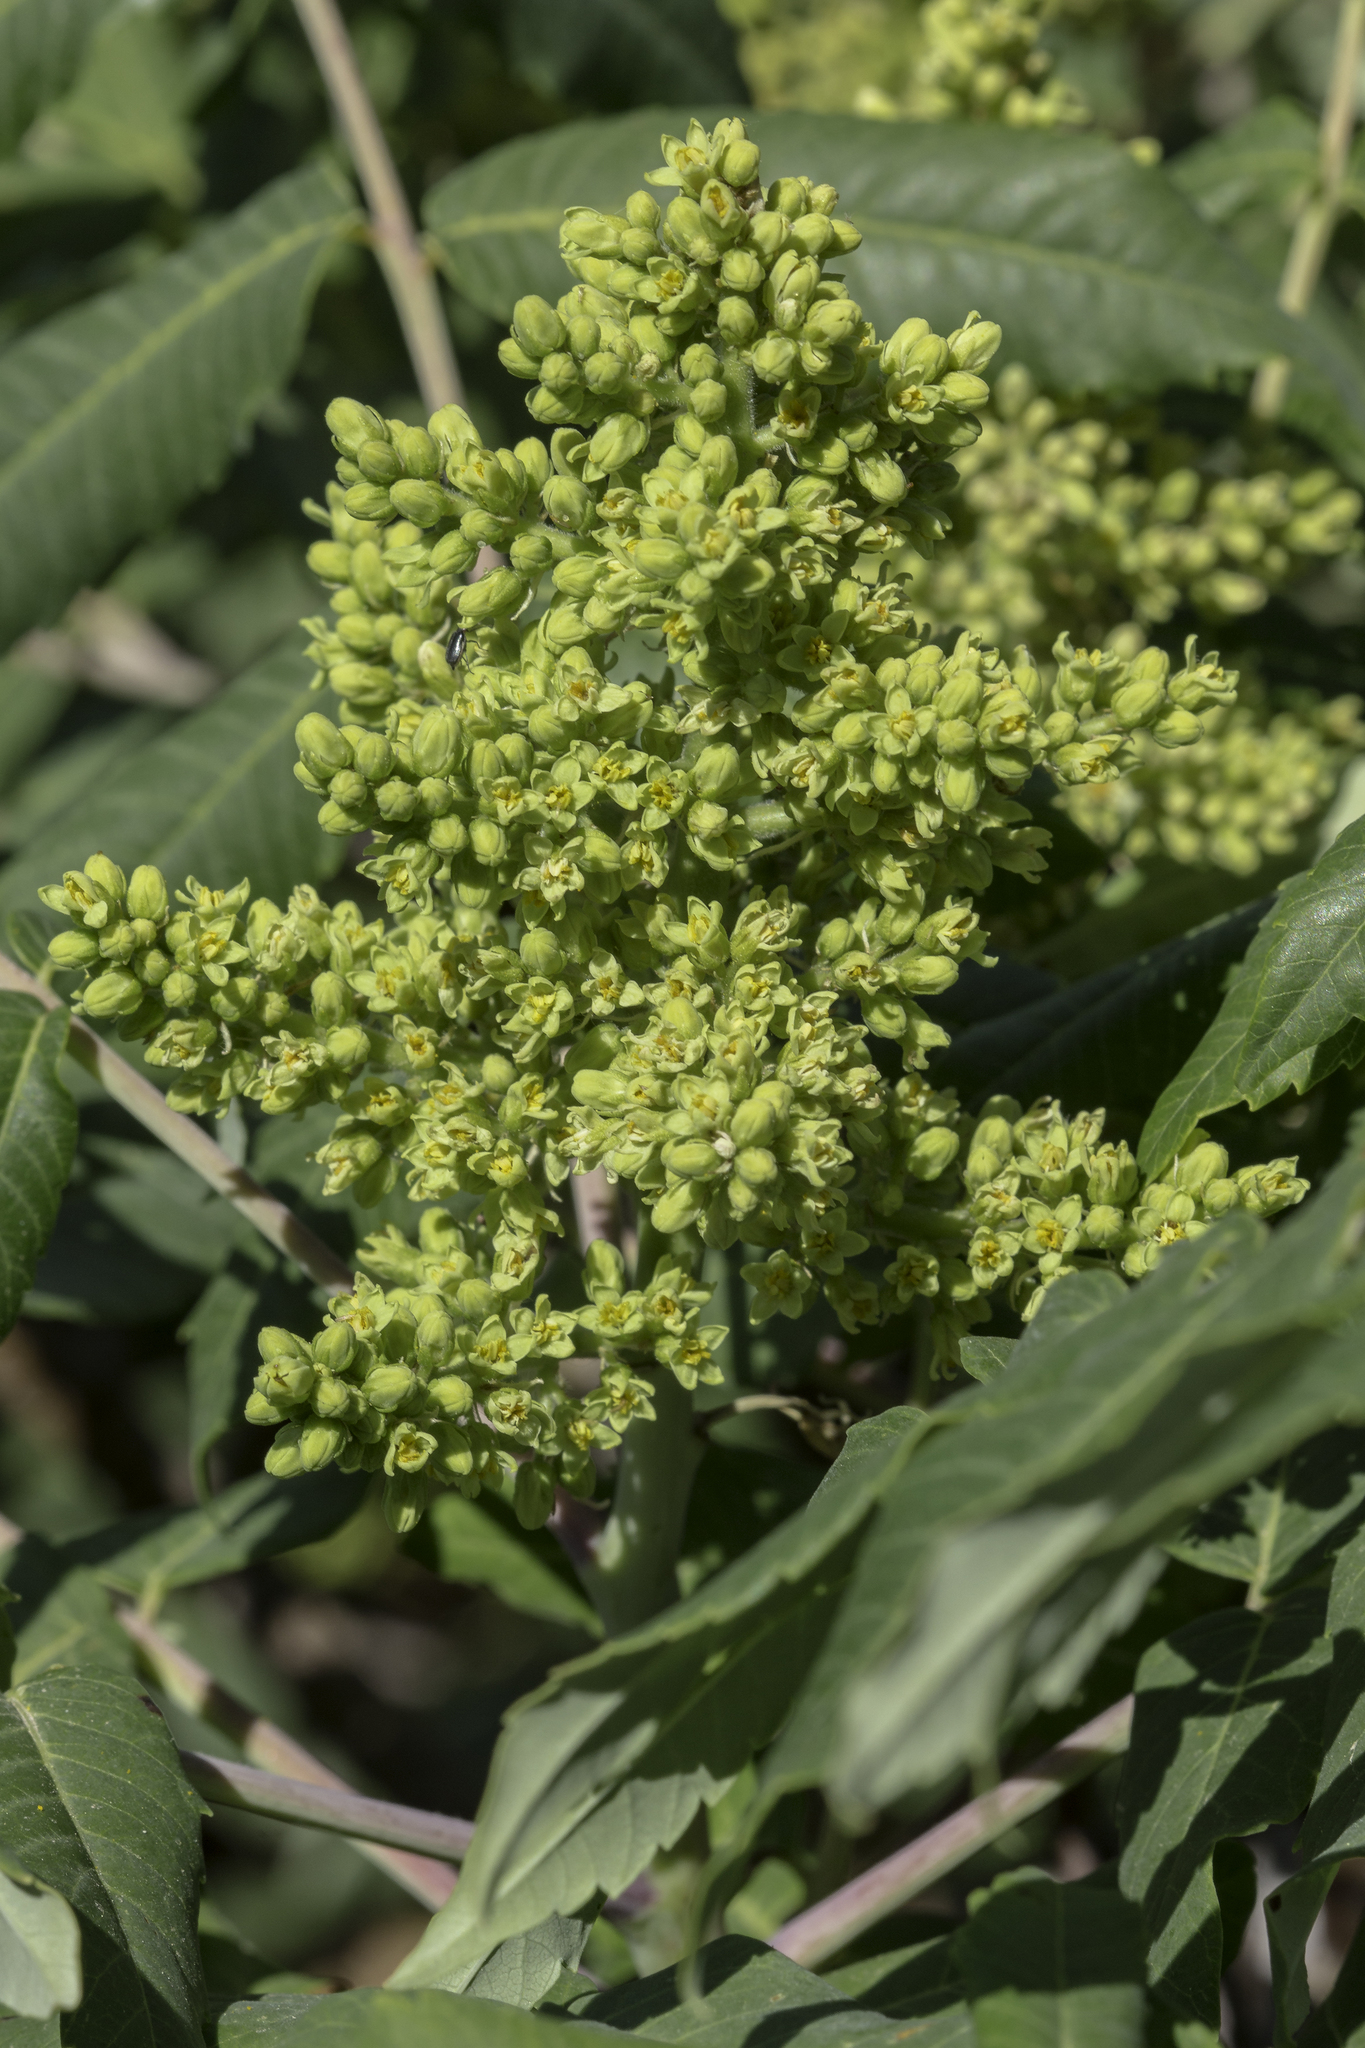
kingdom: Plantae
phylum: Tracheophyta
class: Magnoliopsida
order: Sapindales
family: Anacardiaceae
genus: Rhus
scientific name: Rhus glabra
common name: Scarlet sumac
